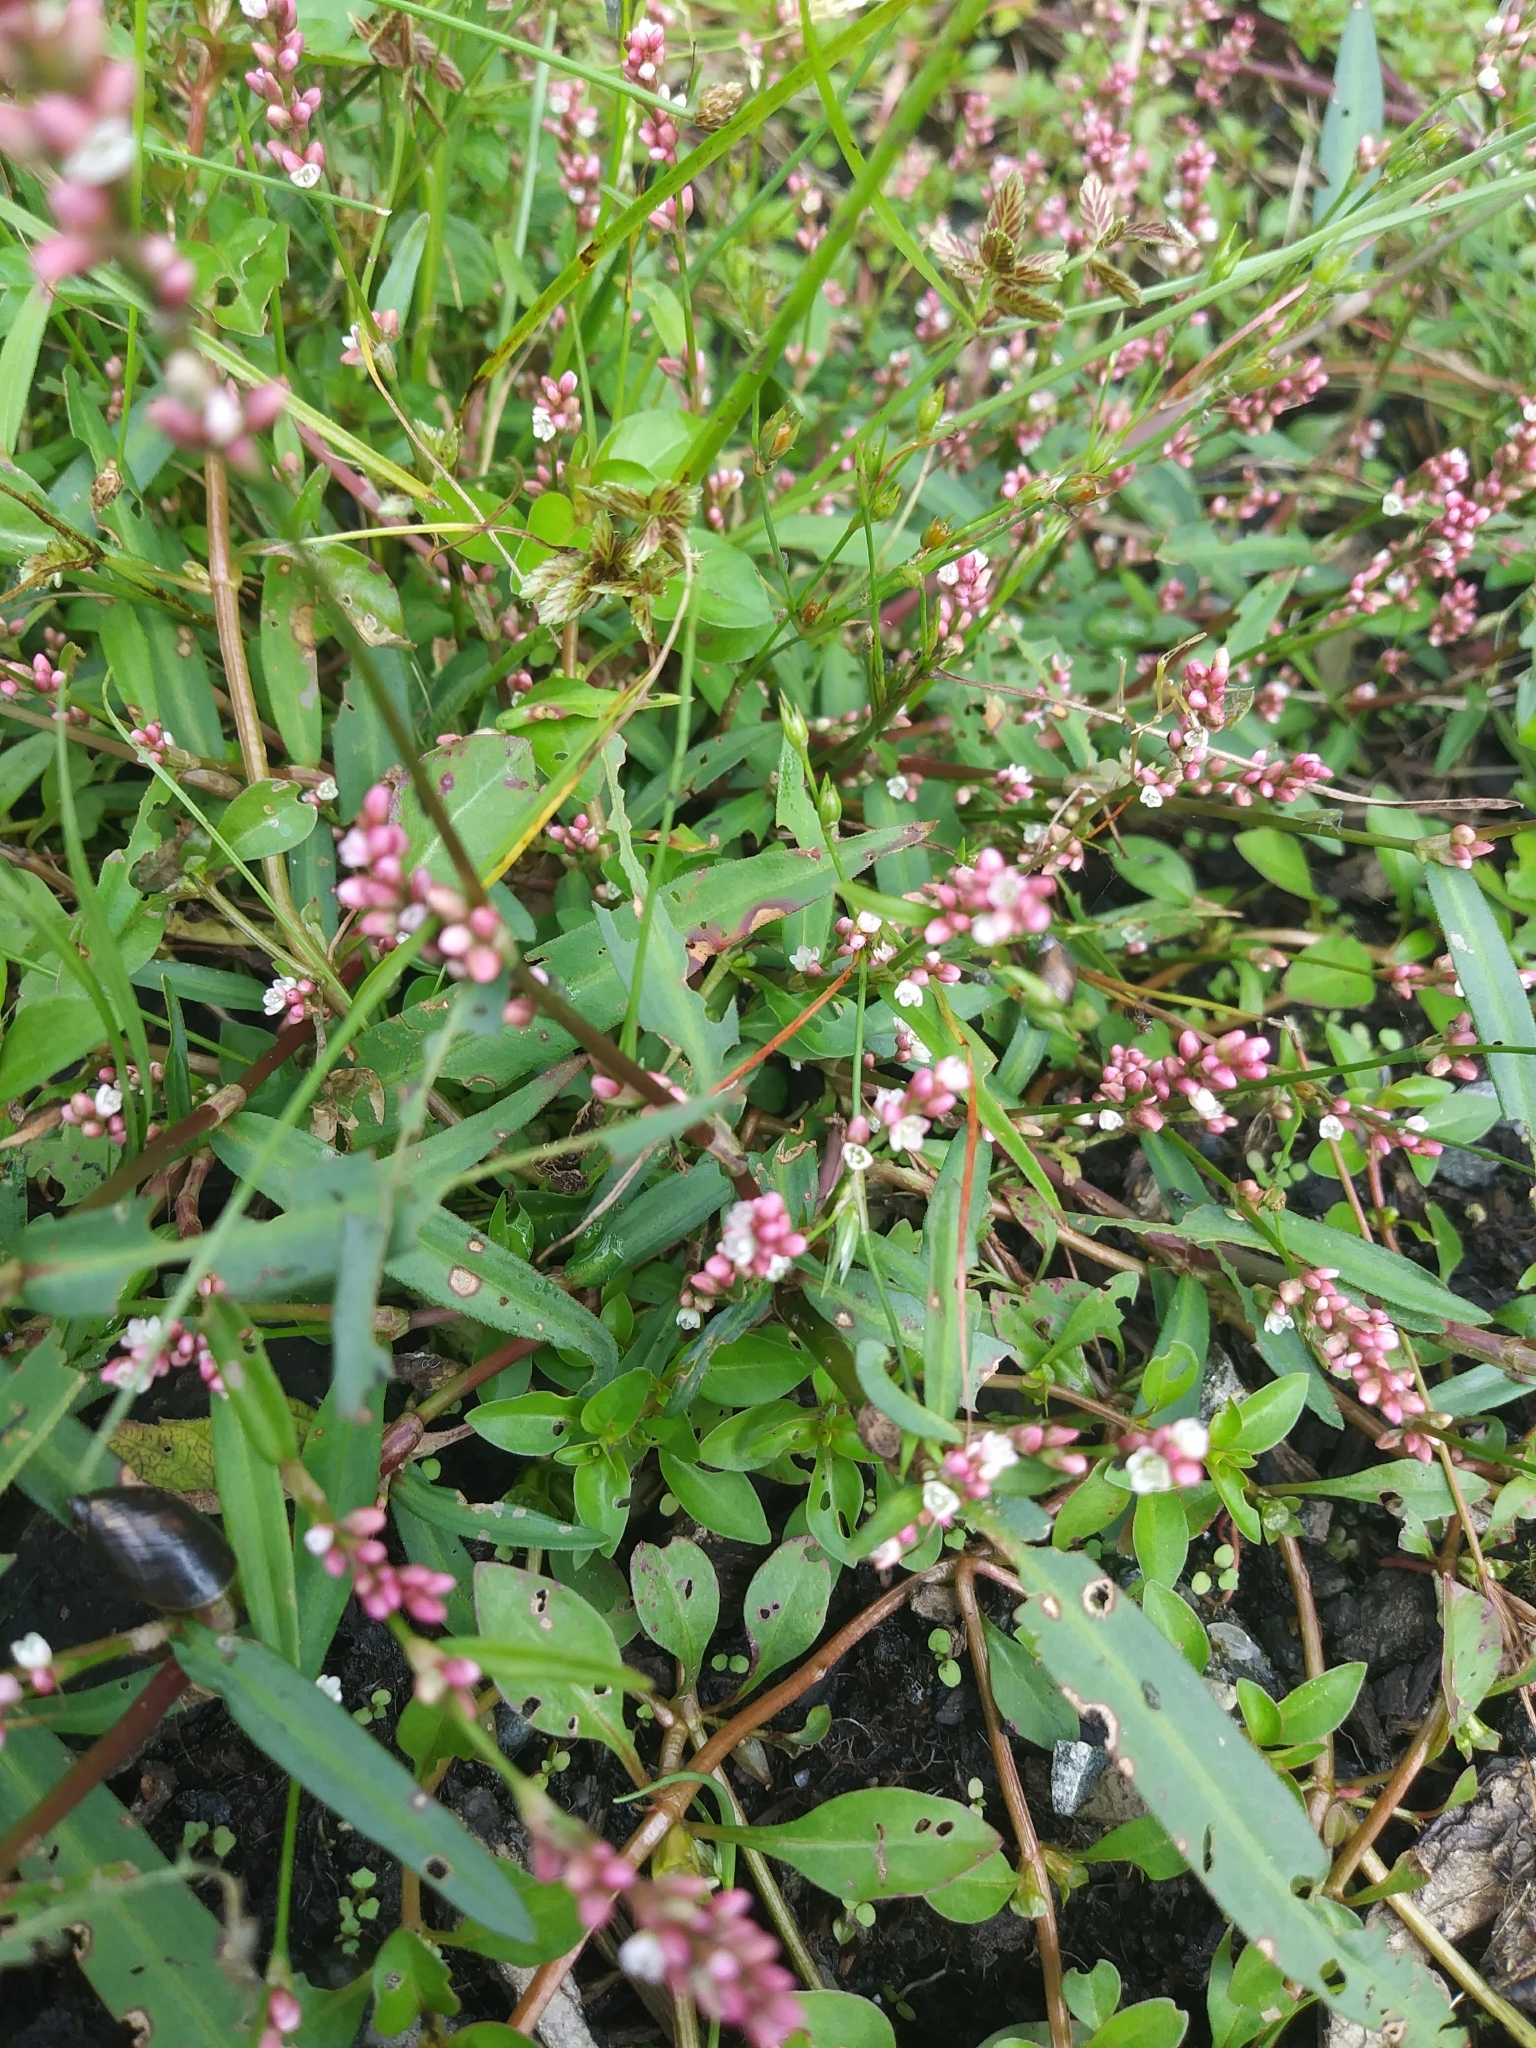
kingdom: Plantae
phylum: Tracheophyta
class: Magnoliopsida
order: Caryophyllales
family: Polygonaceae
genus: Persicaria
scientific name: Persicaria longiseta
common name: Bristly lady's-thumb
